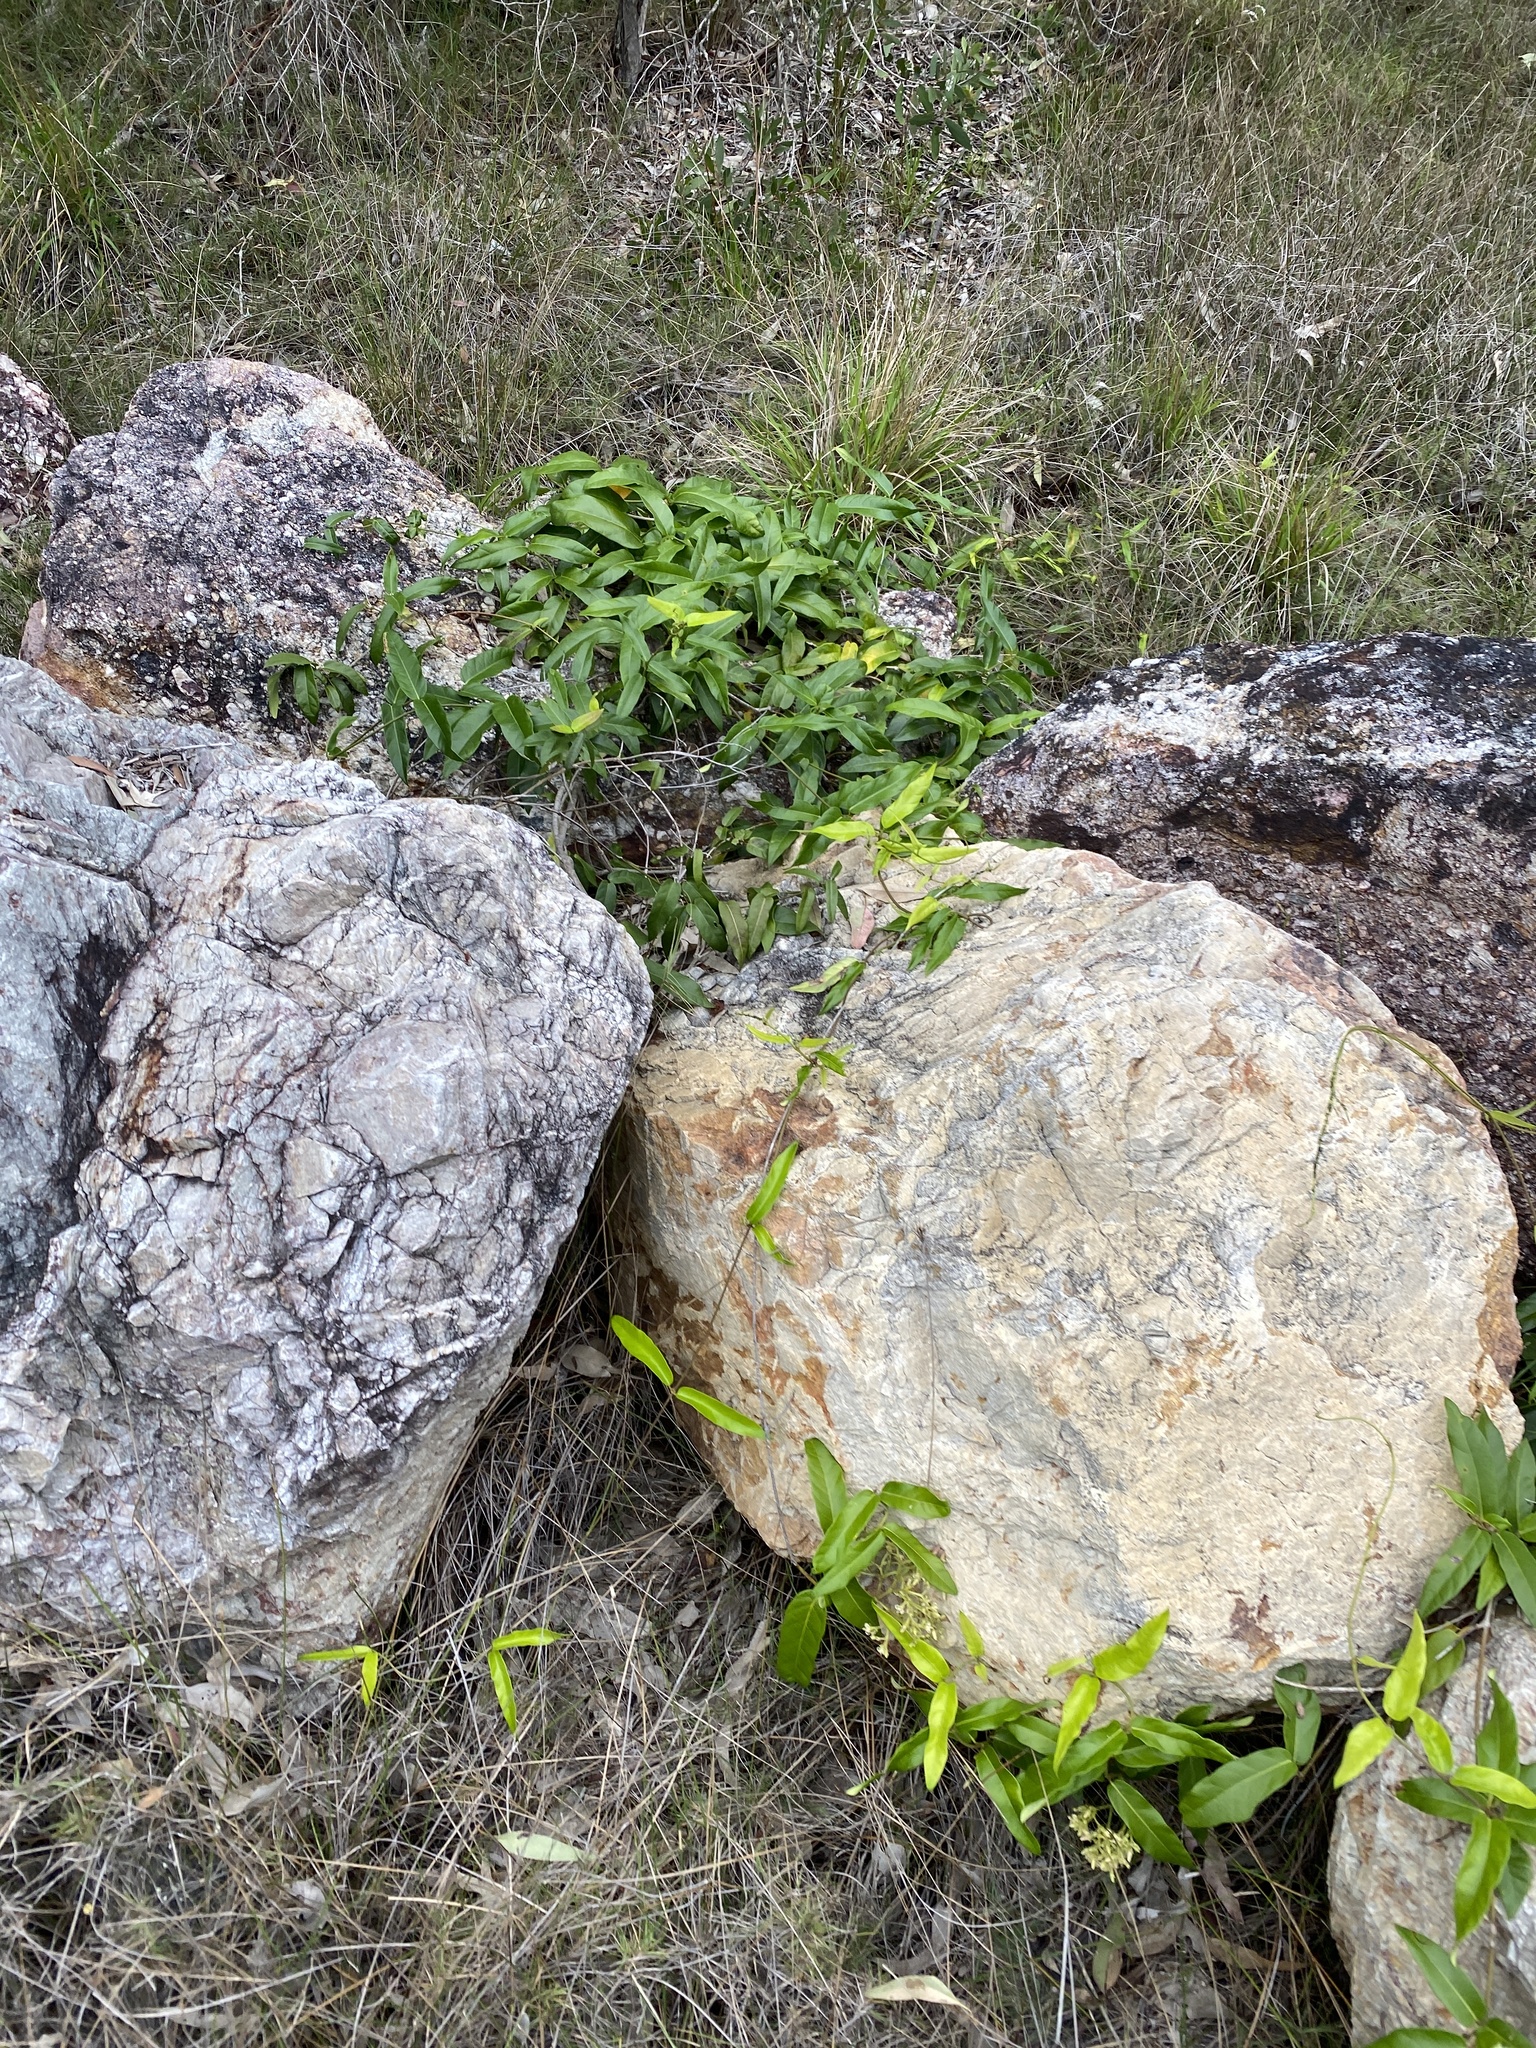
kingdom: Plantae
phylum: Tracheophyta
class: Magnoliopsida
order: Gentianales
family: Apocynaceae
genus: Parsonsia
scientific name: Parsonsia straminea
